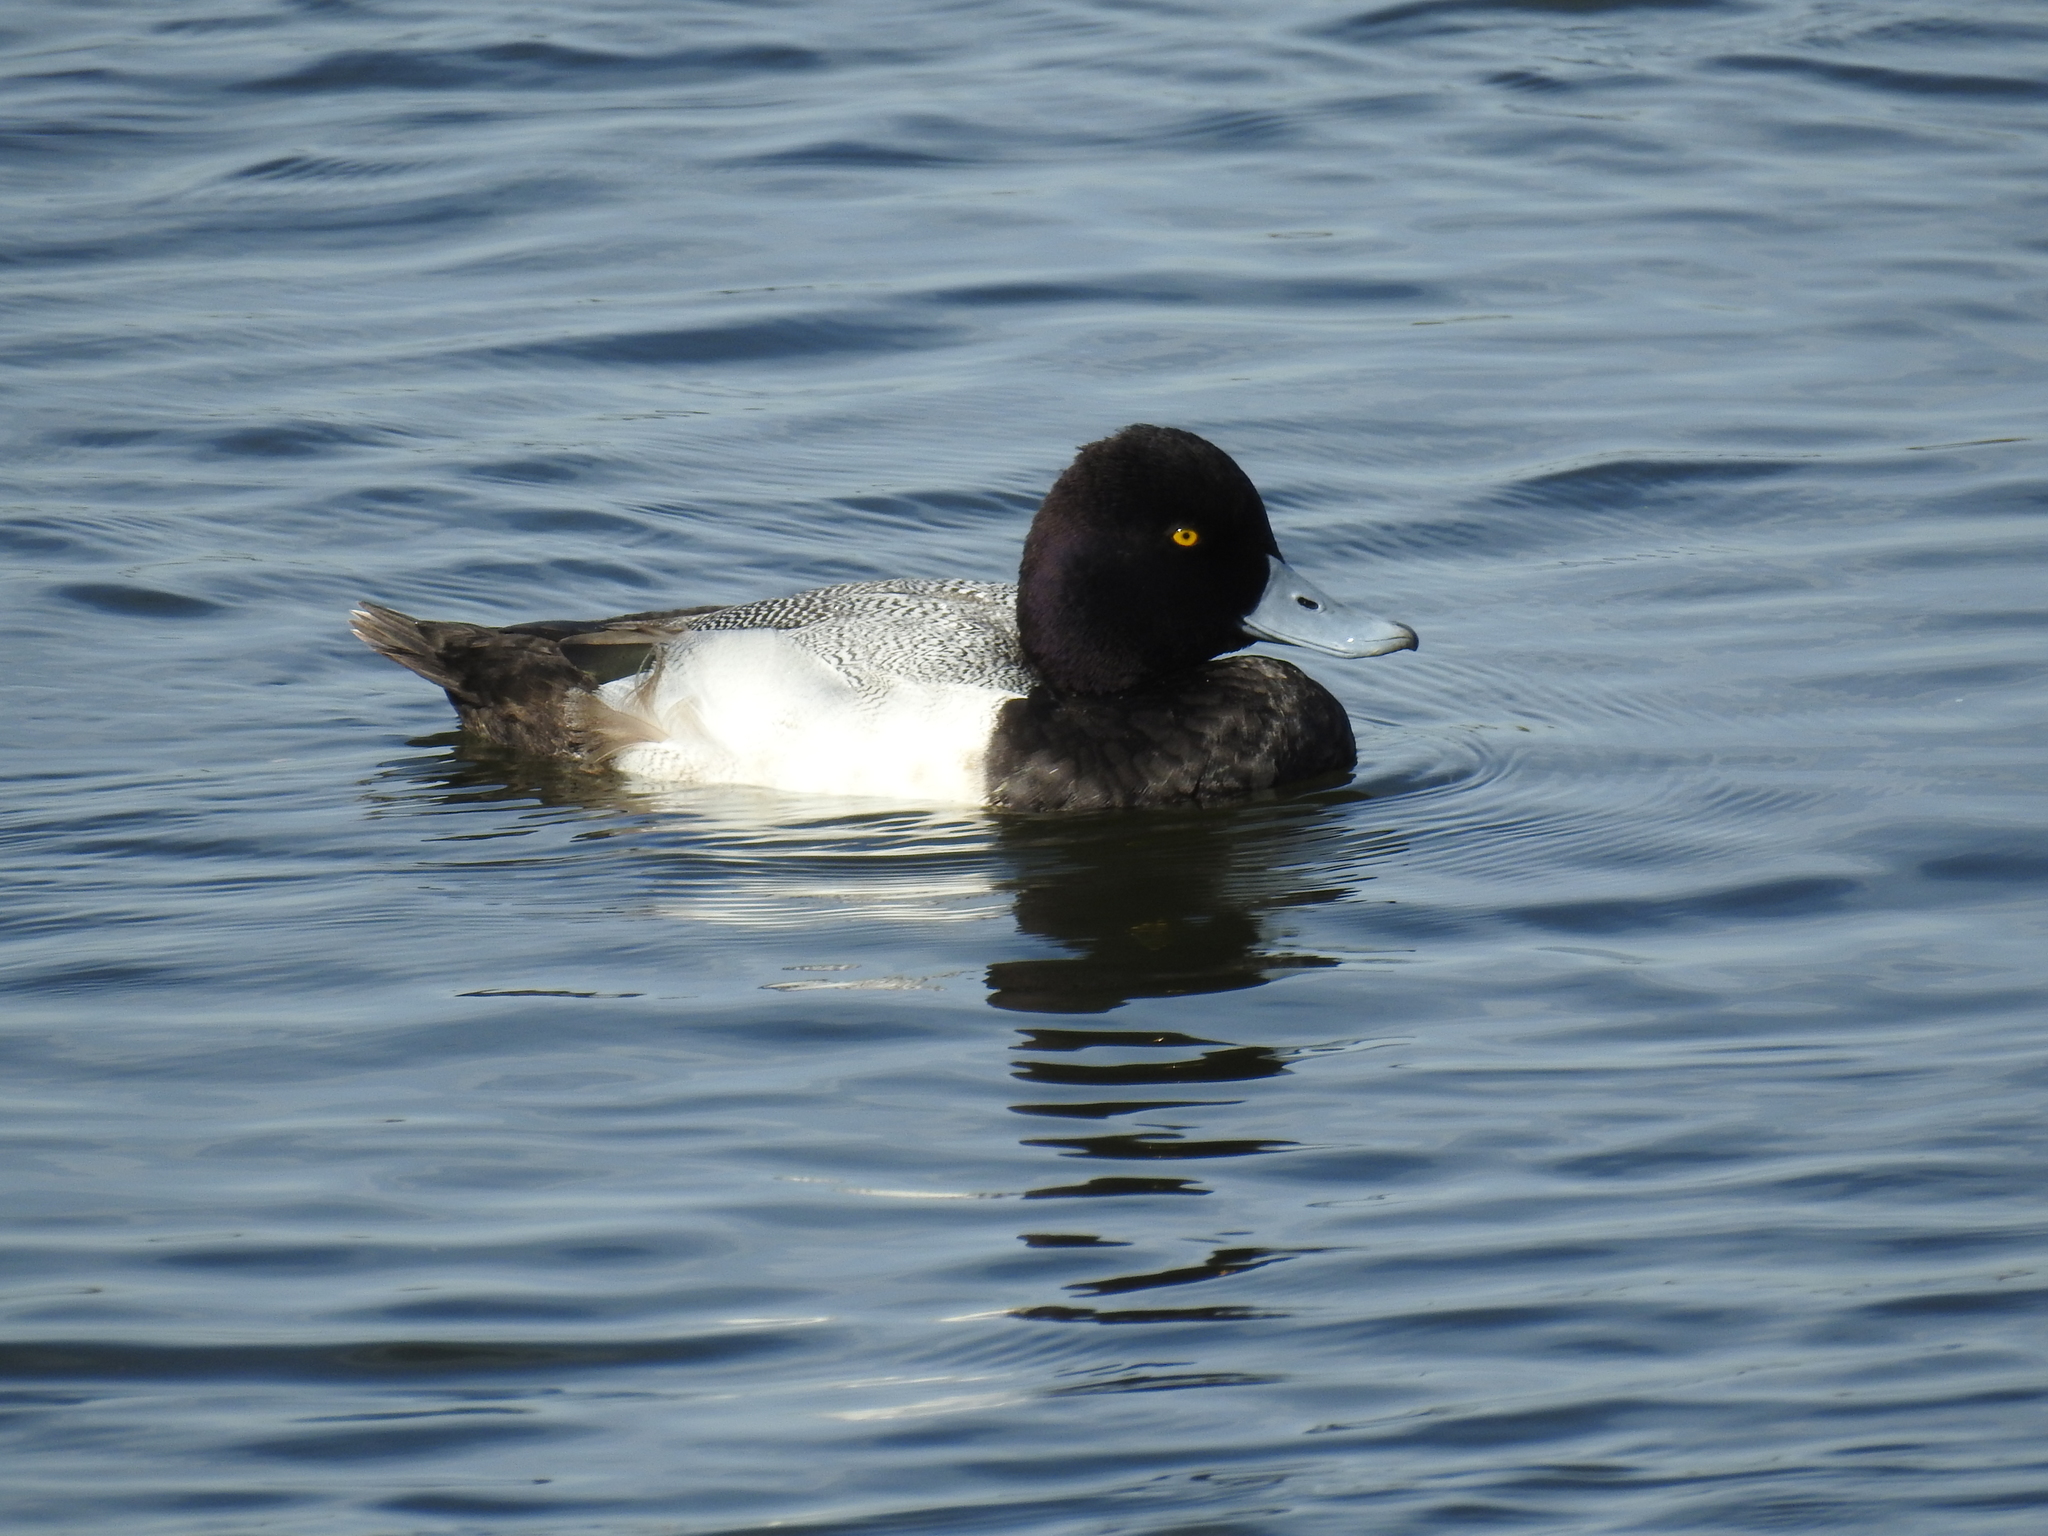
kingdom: Animalia
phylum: Chordata
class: Aves
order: Anseriformes
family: Anatidae
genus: Aythya
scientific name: Aythya affinis
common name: Lesser scaup
